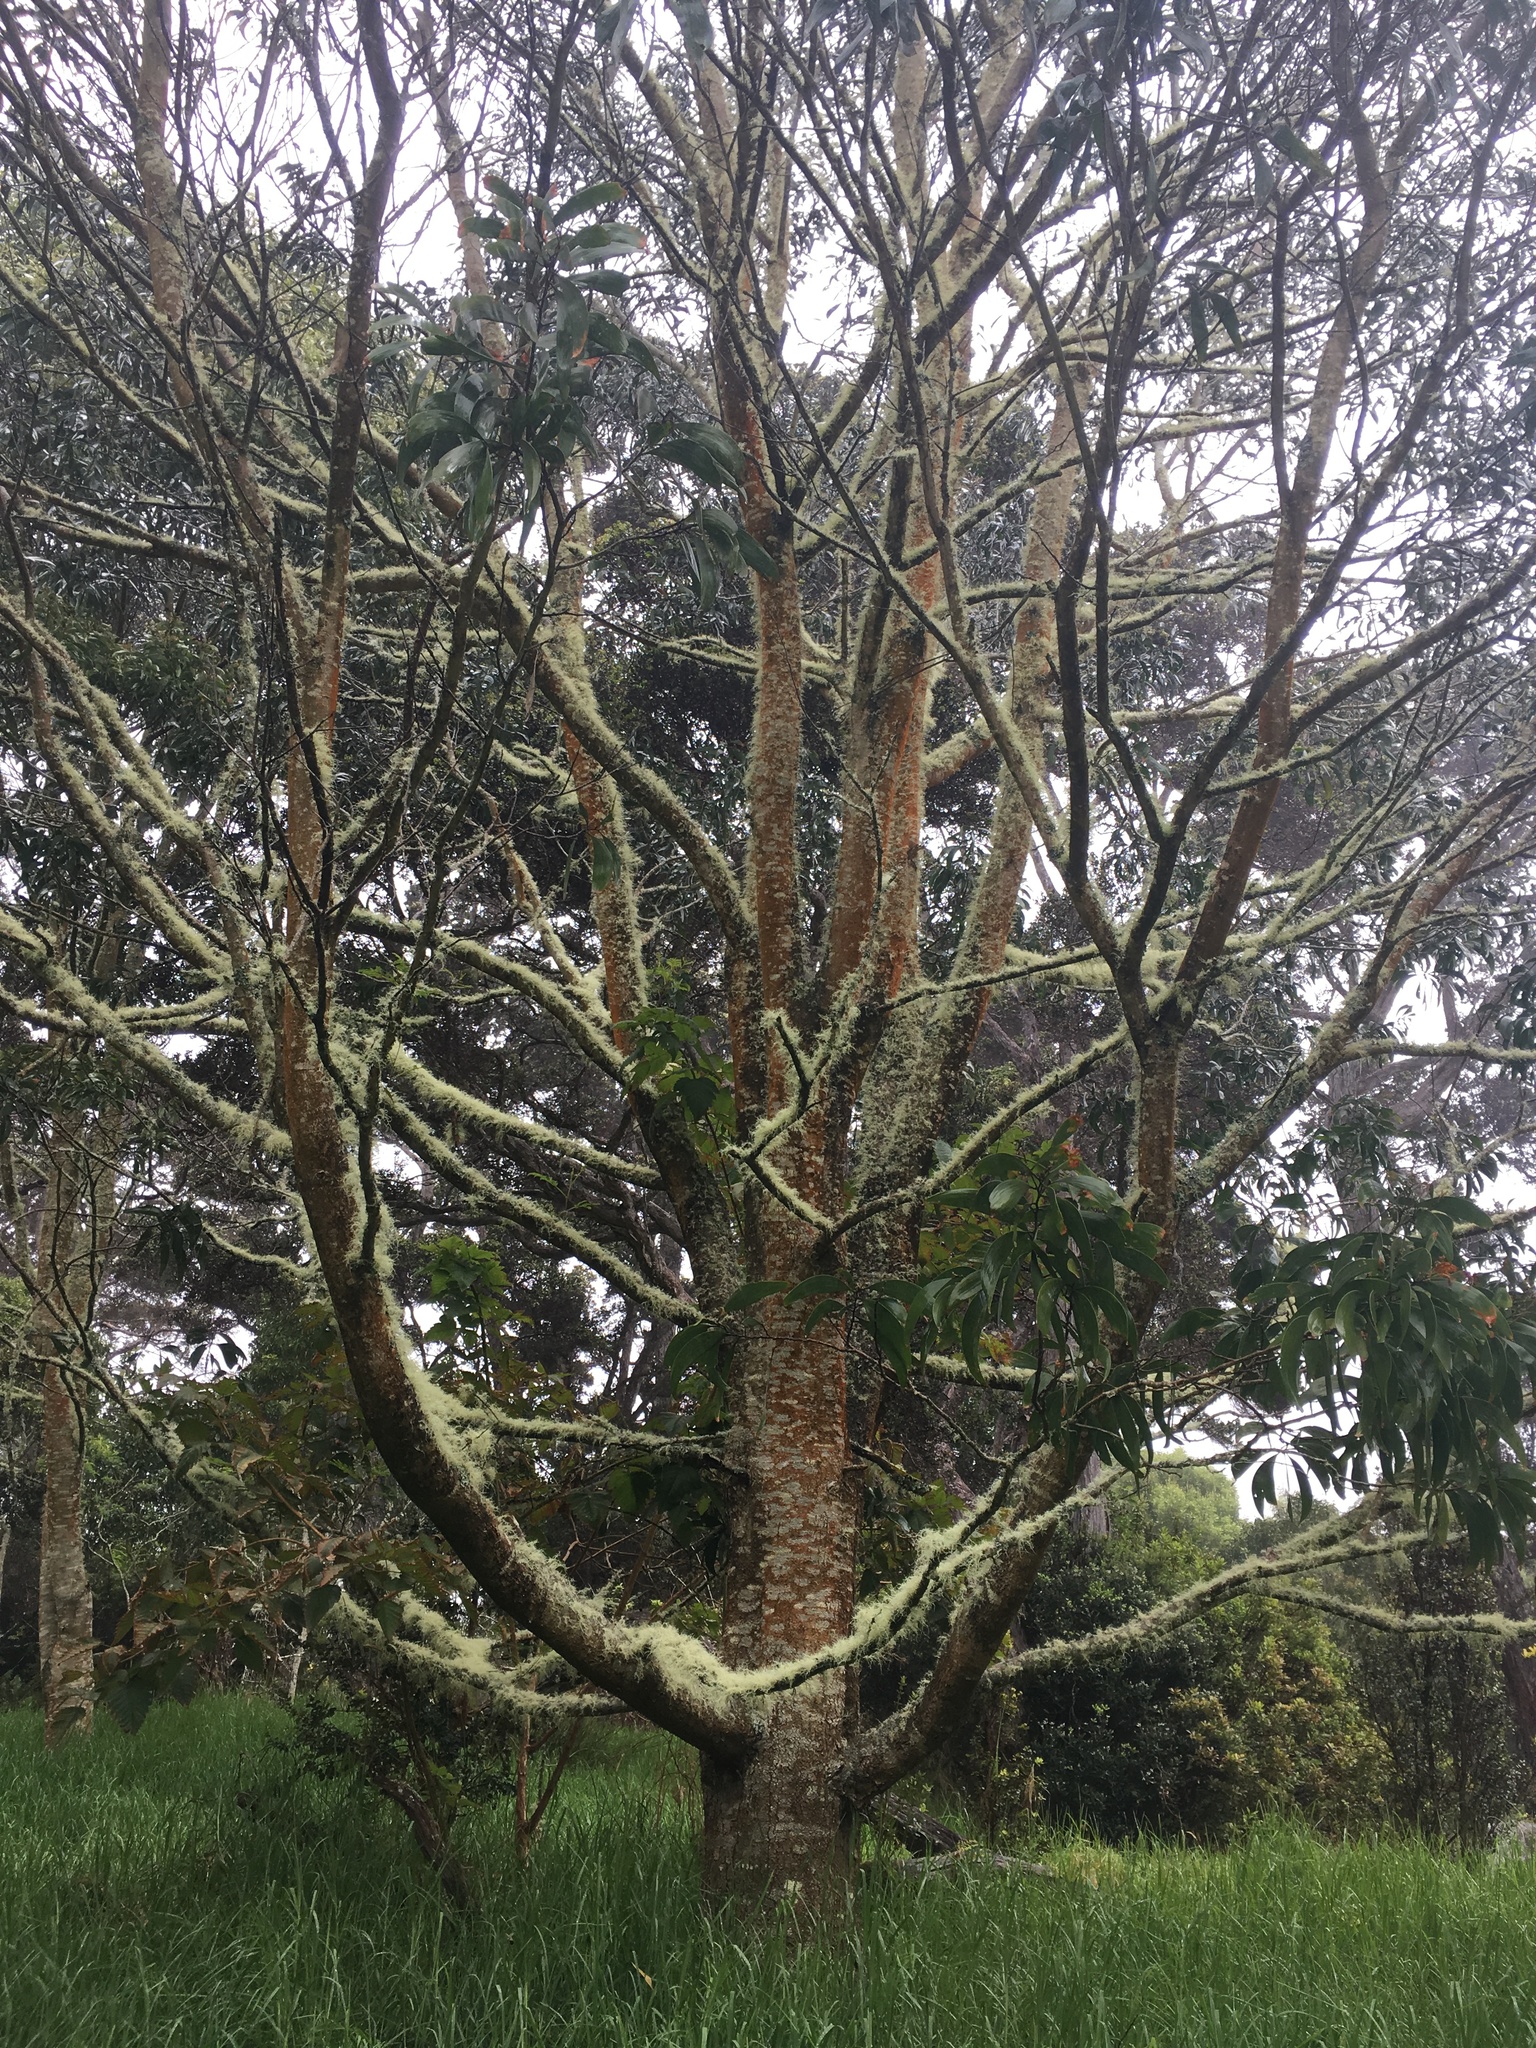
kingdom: Plantae
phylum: Tracheophyta
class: Magnoliopsida
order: Fabales
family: Fabaceae
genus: Acacia
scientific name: Acacia koa
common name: Gray koa
